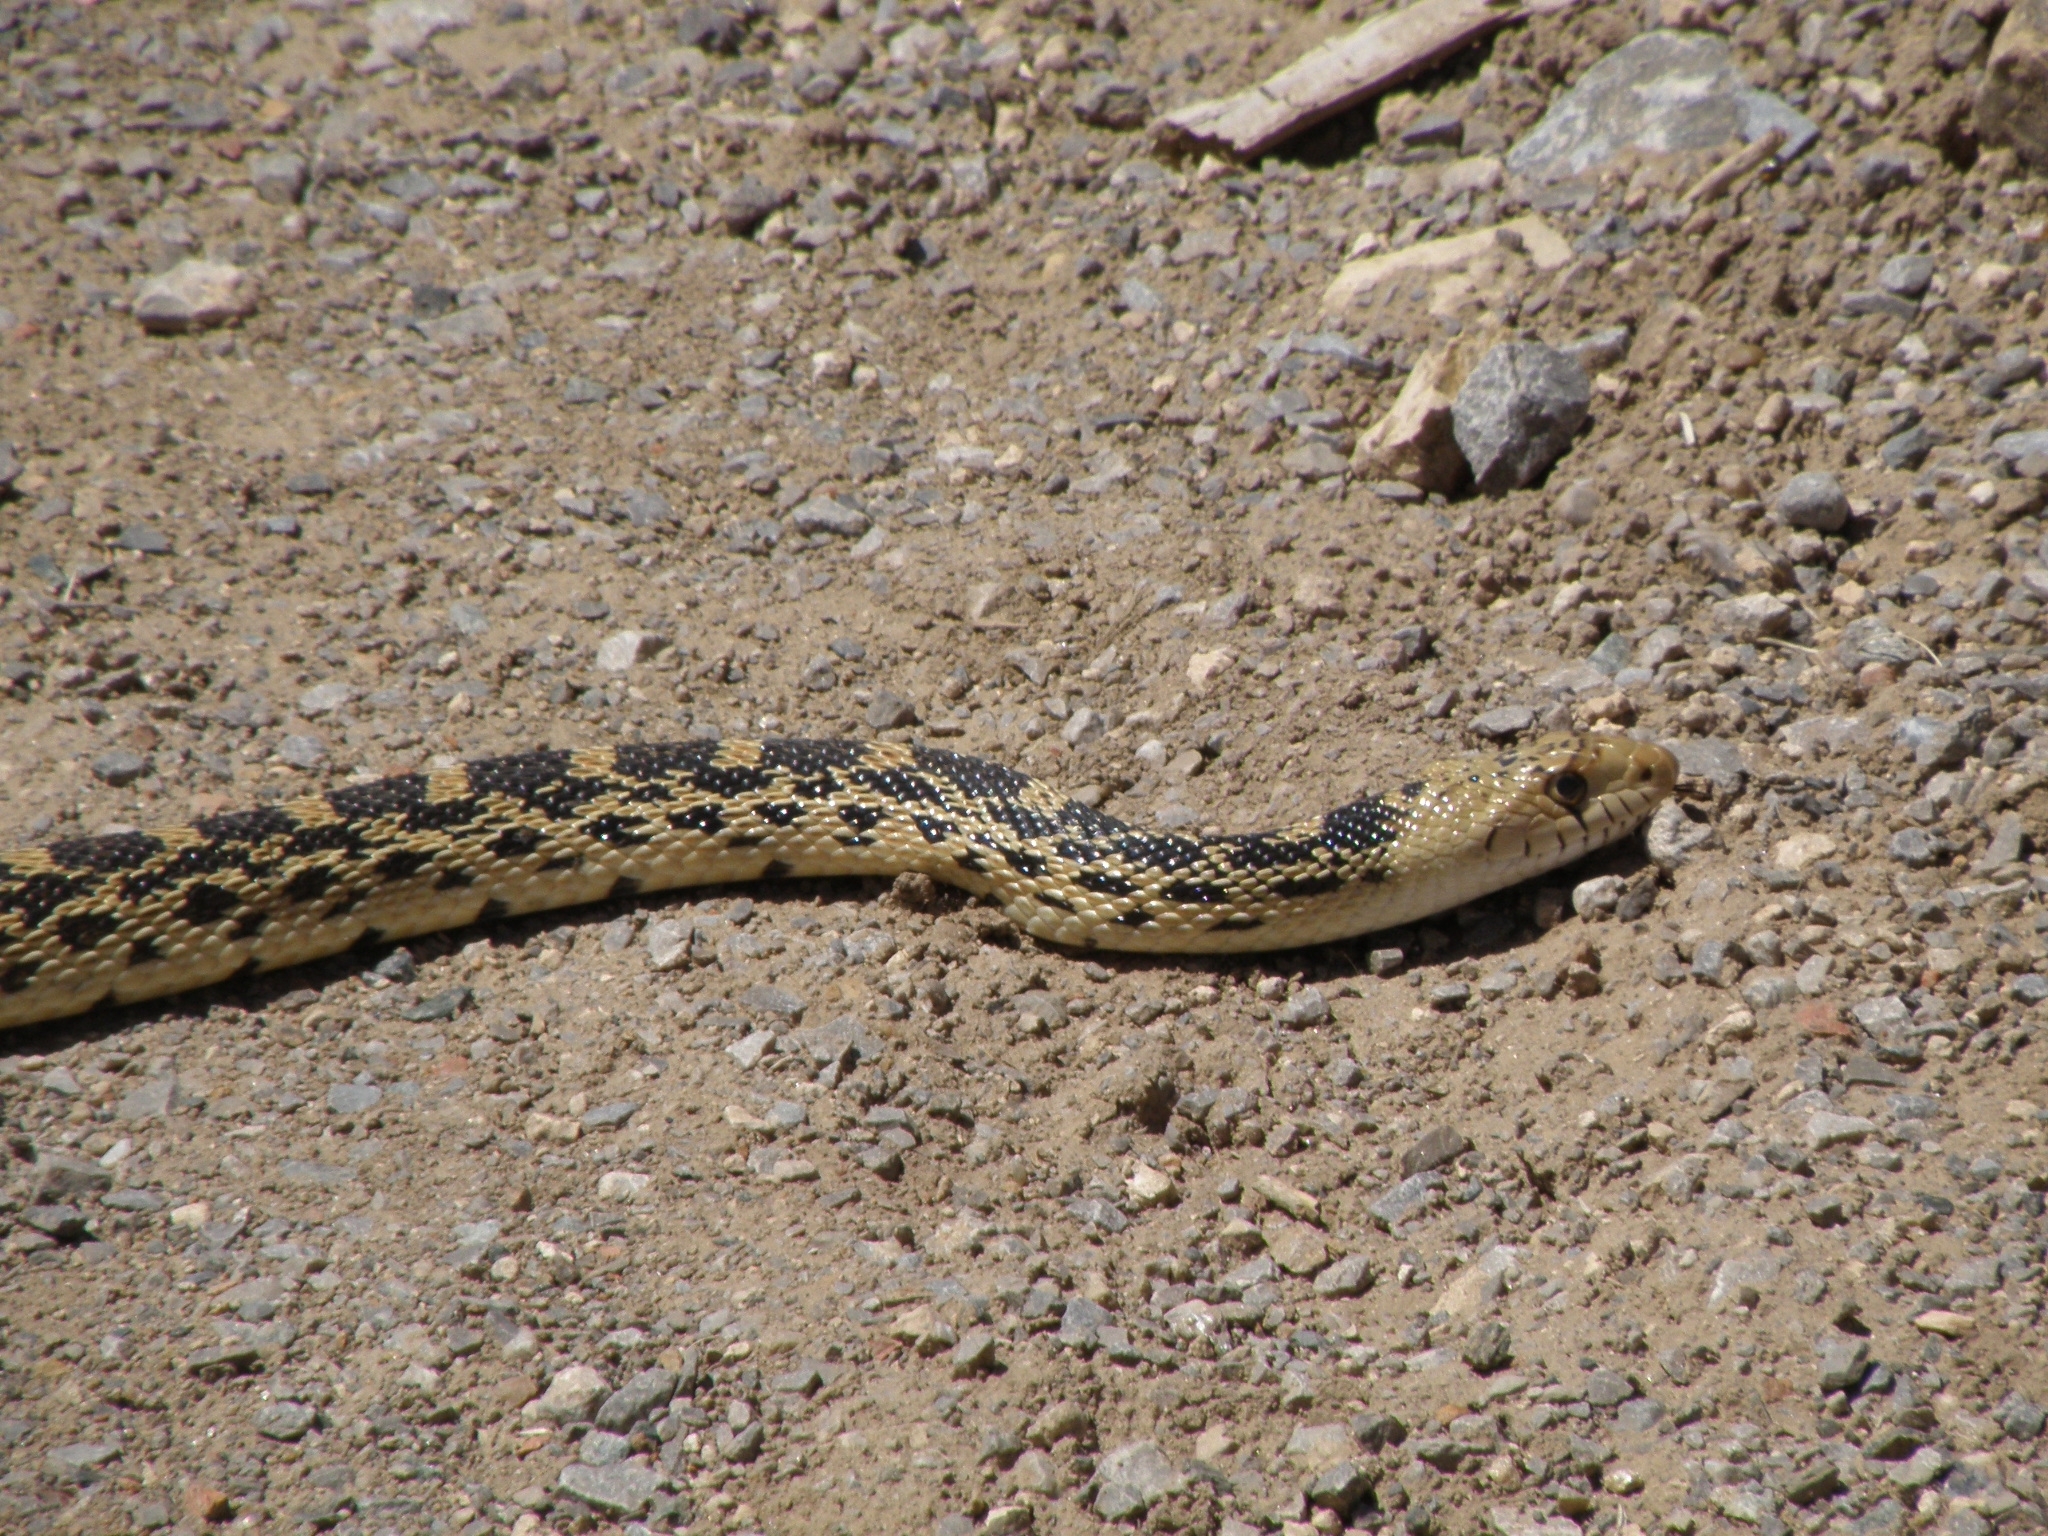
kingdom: Animalia
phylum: Chordata
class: Squamata
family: Colubridae
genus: Pituophis
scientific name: Pituophis catenifer
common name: Gopher snake
